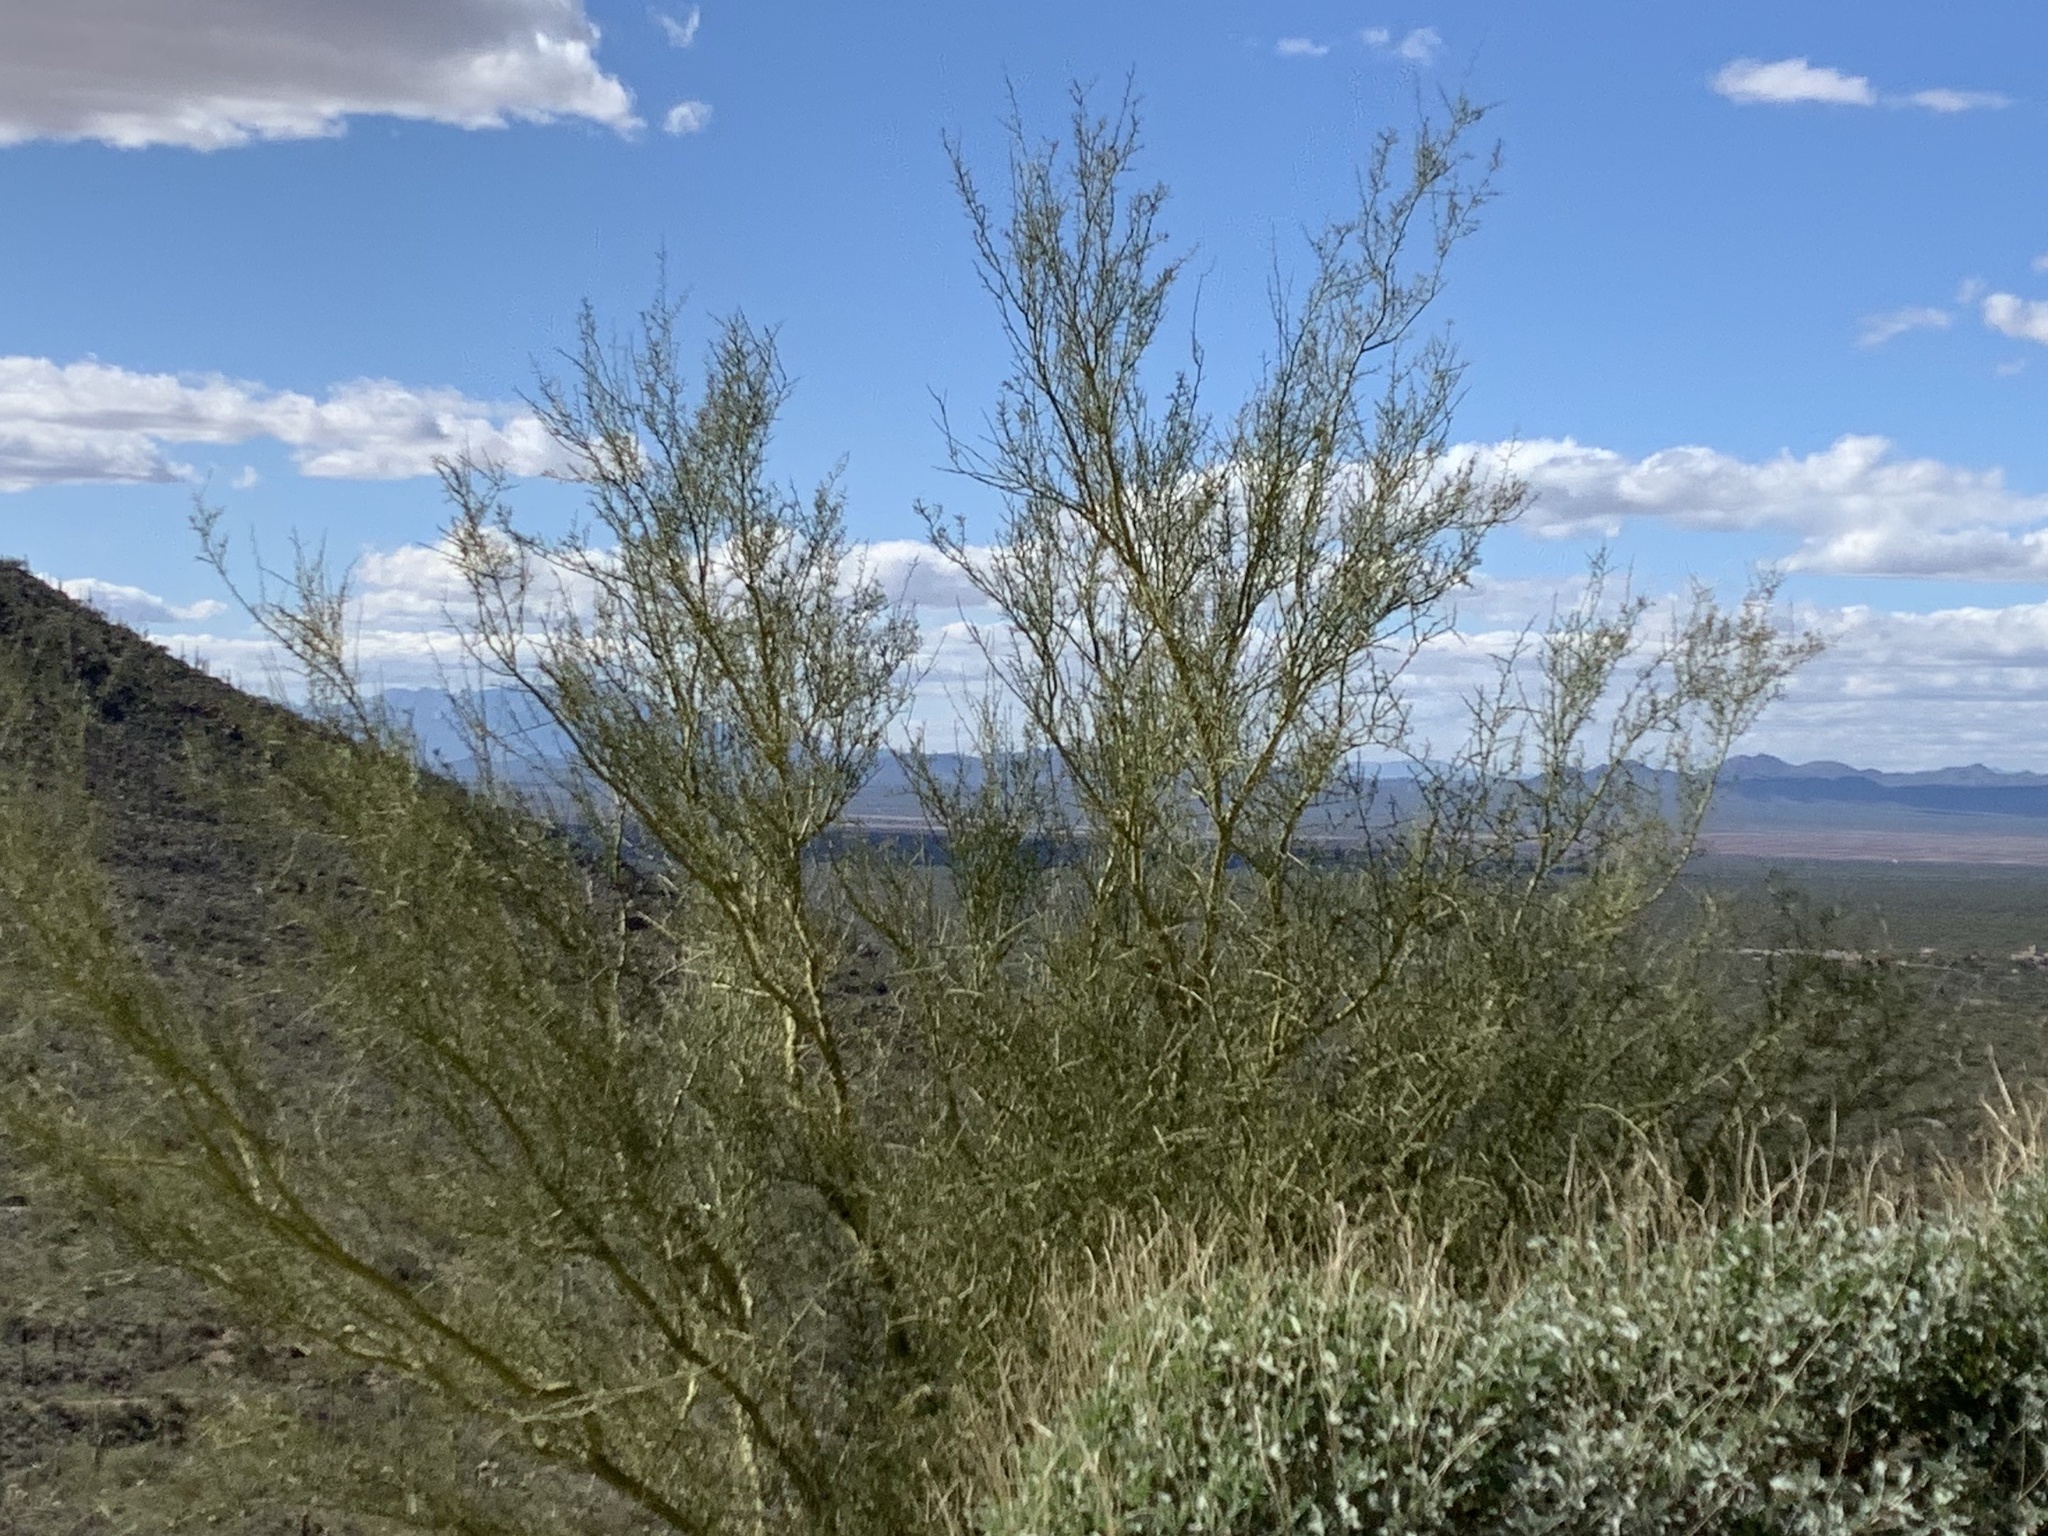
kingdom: Plantae
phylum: Tracheophyta
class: Magnoliopsida
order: Fabales
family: Fabaceae
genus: Parkinsonia
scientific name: Parkinsonia microphylla
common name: Yellow paloverde
